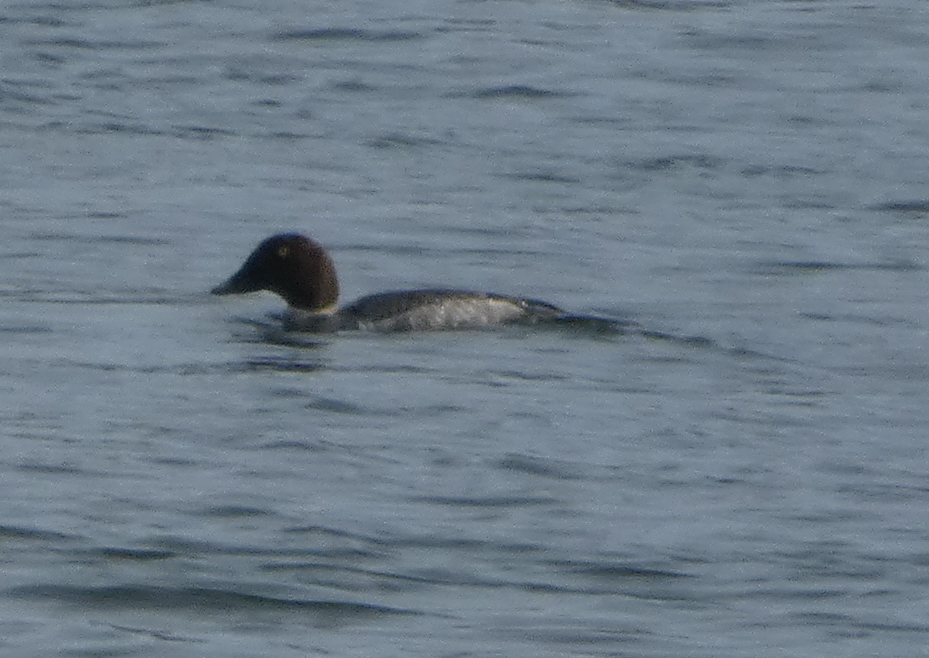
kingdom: Animalia
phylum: Chordata
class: Aves
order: Anseriformes
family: Anatidae
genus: Bucephala
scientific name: Bucephala clangula
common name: Common goldeneye
